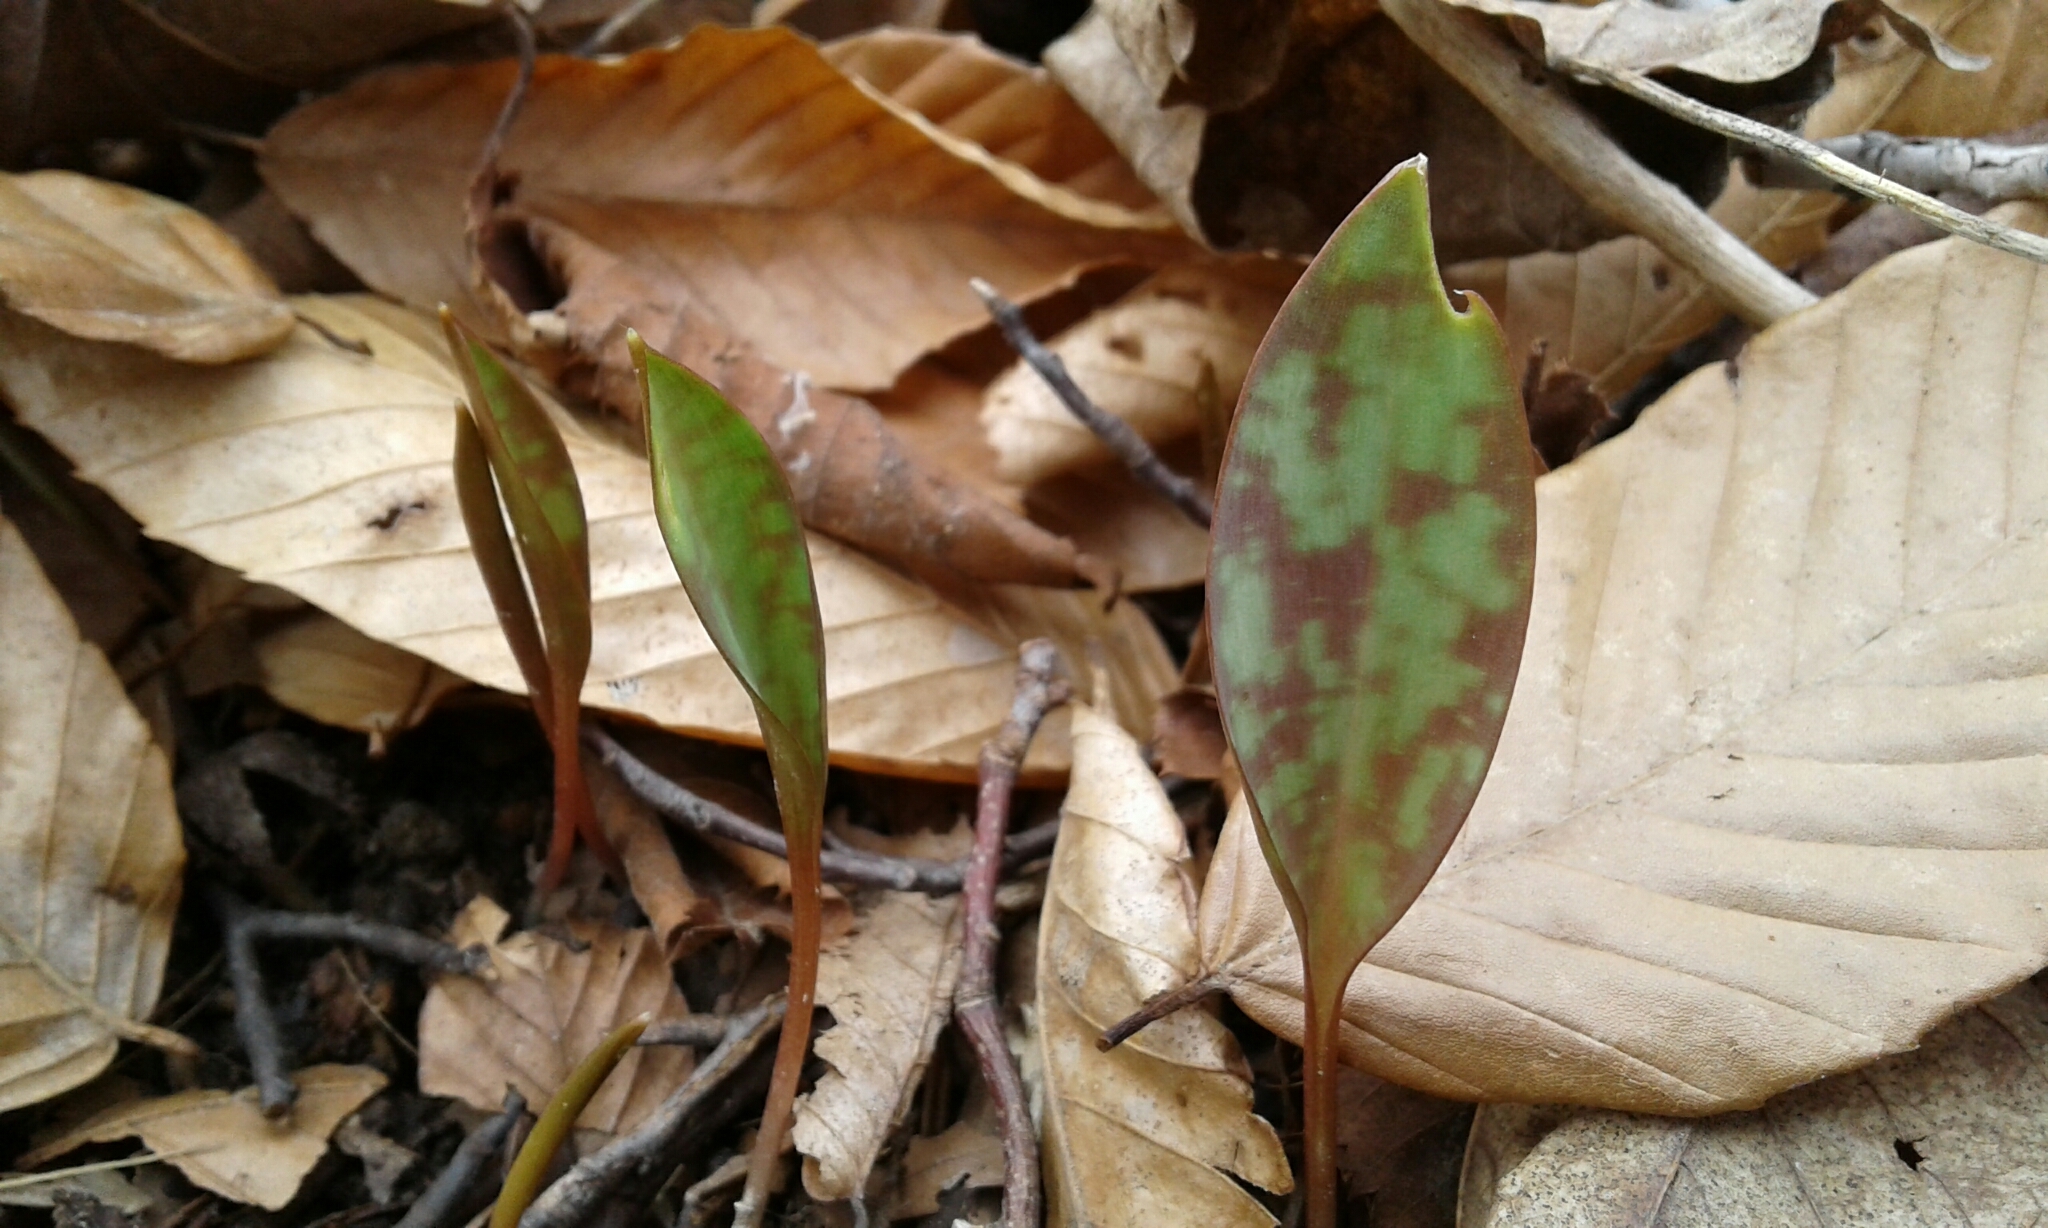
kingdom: Plantae
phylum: Tracheophyta
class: Liliopsida
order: Liliales
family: Liliaceae
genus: Erythronium
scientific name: Erythronium americanum
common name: Yellow adder's-tongue
